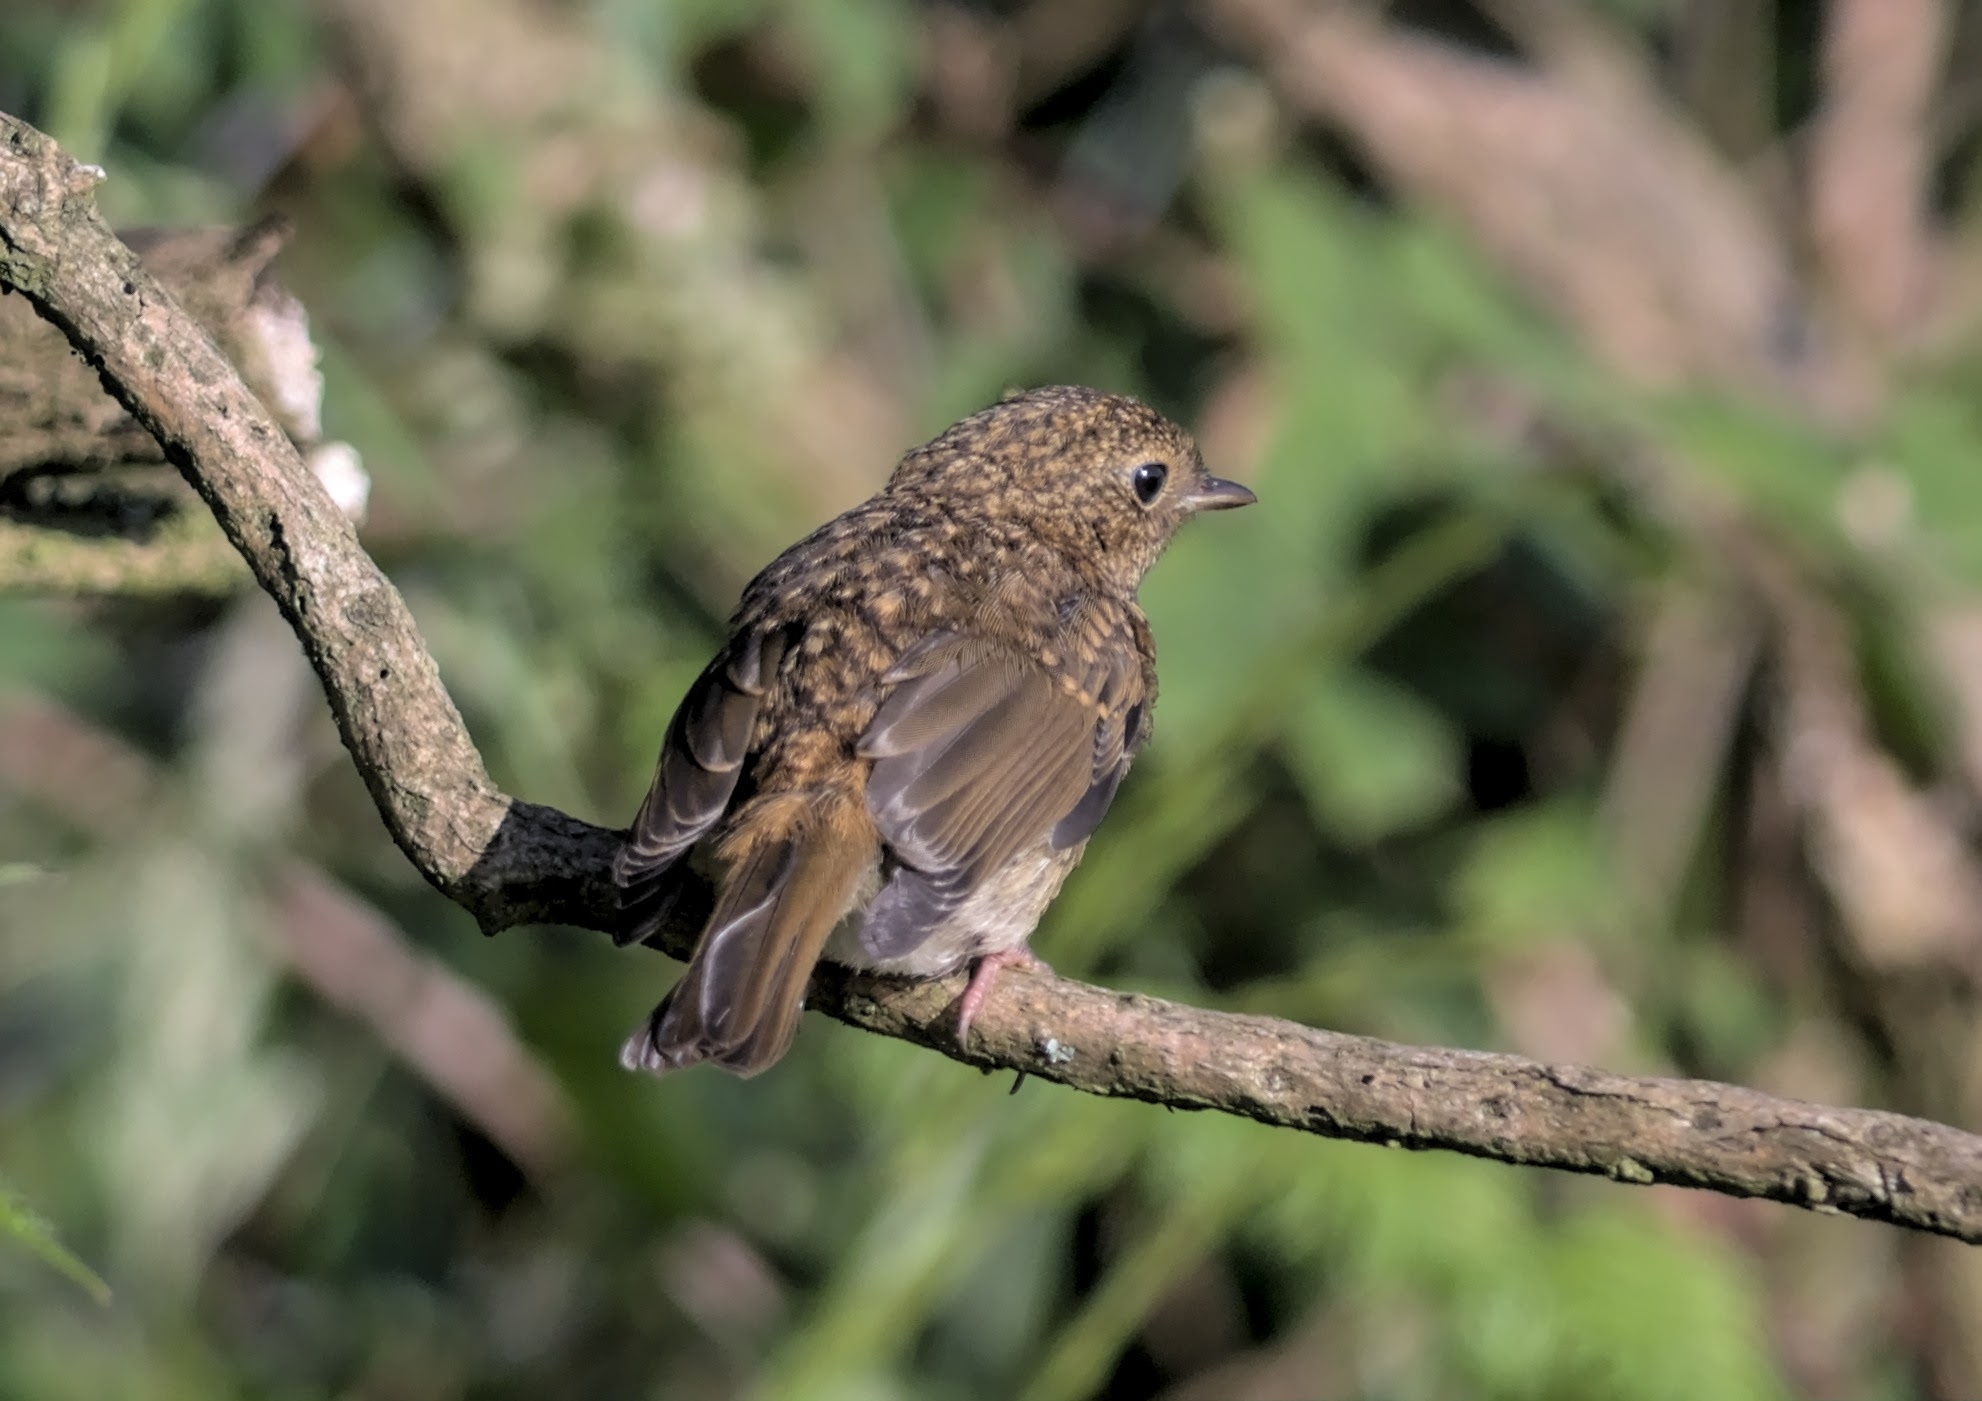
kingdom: Animalia
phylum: Chordata
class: Aves
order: Passeriformes
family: Muscicapidae
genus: Erithacus
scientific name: Erithacus rubecula
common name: European robin
